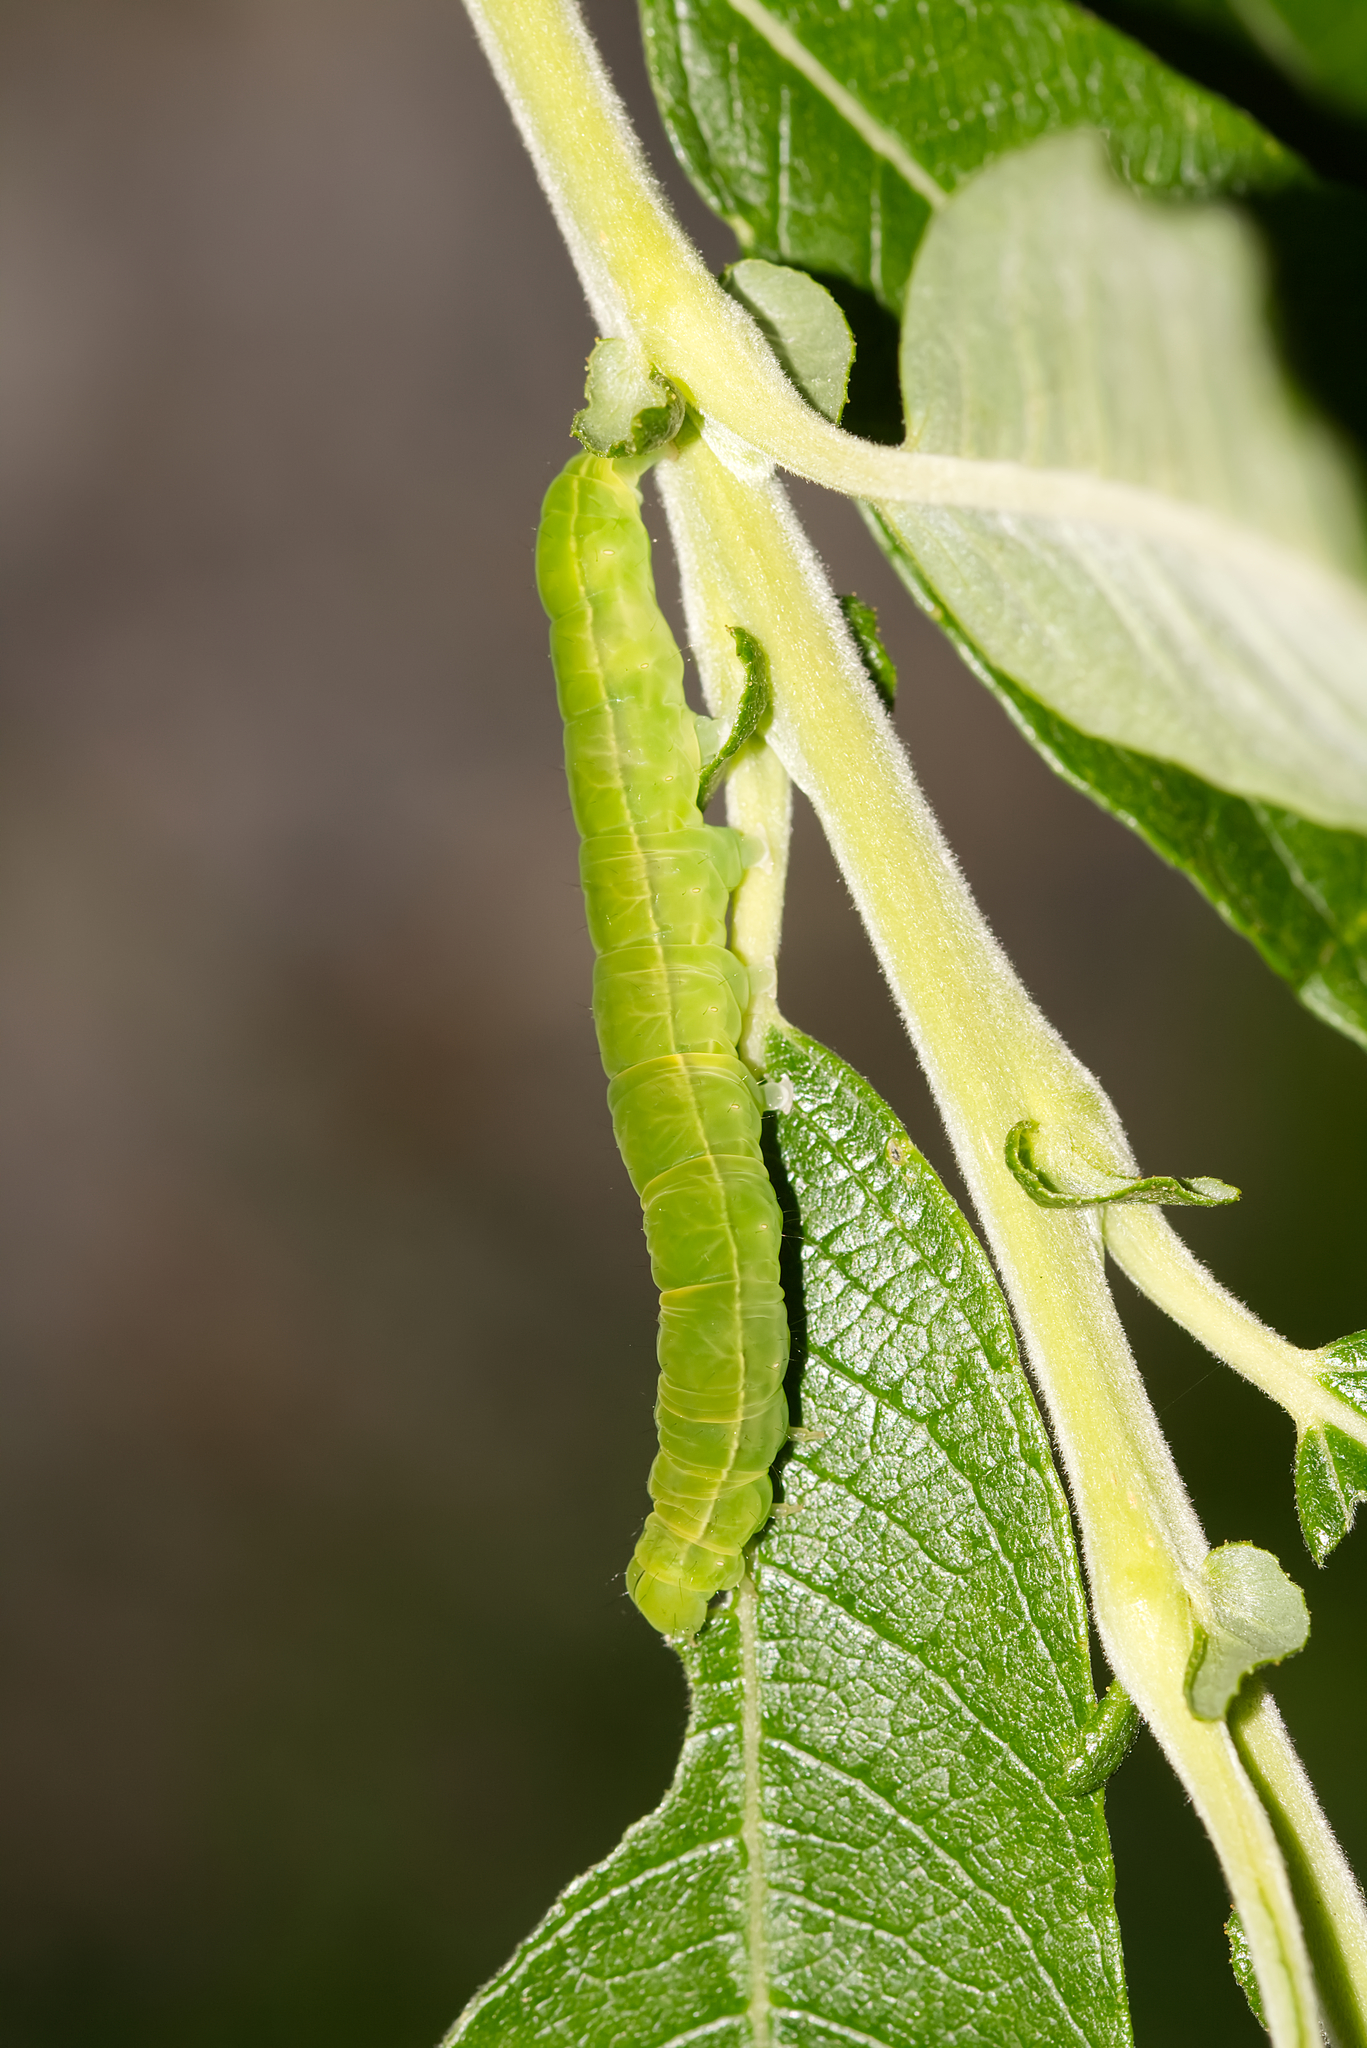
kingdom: Animalia
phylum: Arthropoda
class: Insecta
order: Lepidoptera
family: Erebidae
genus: Scoliopteryx
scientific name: Scoliopteryx libatrix
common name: Herald
